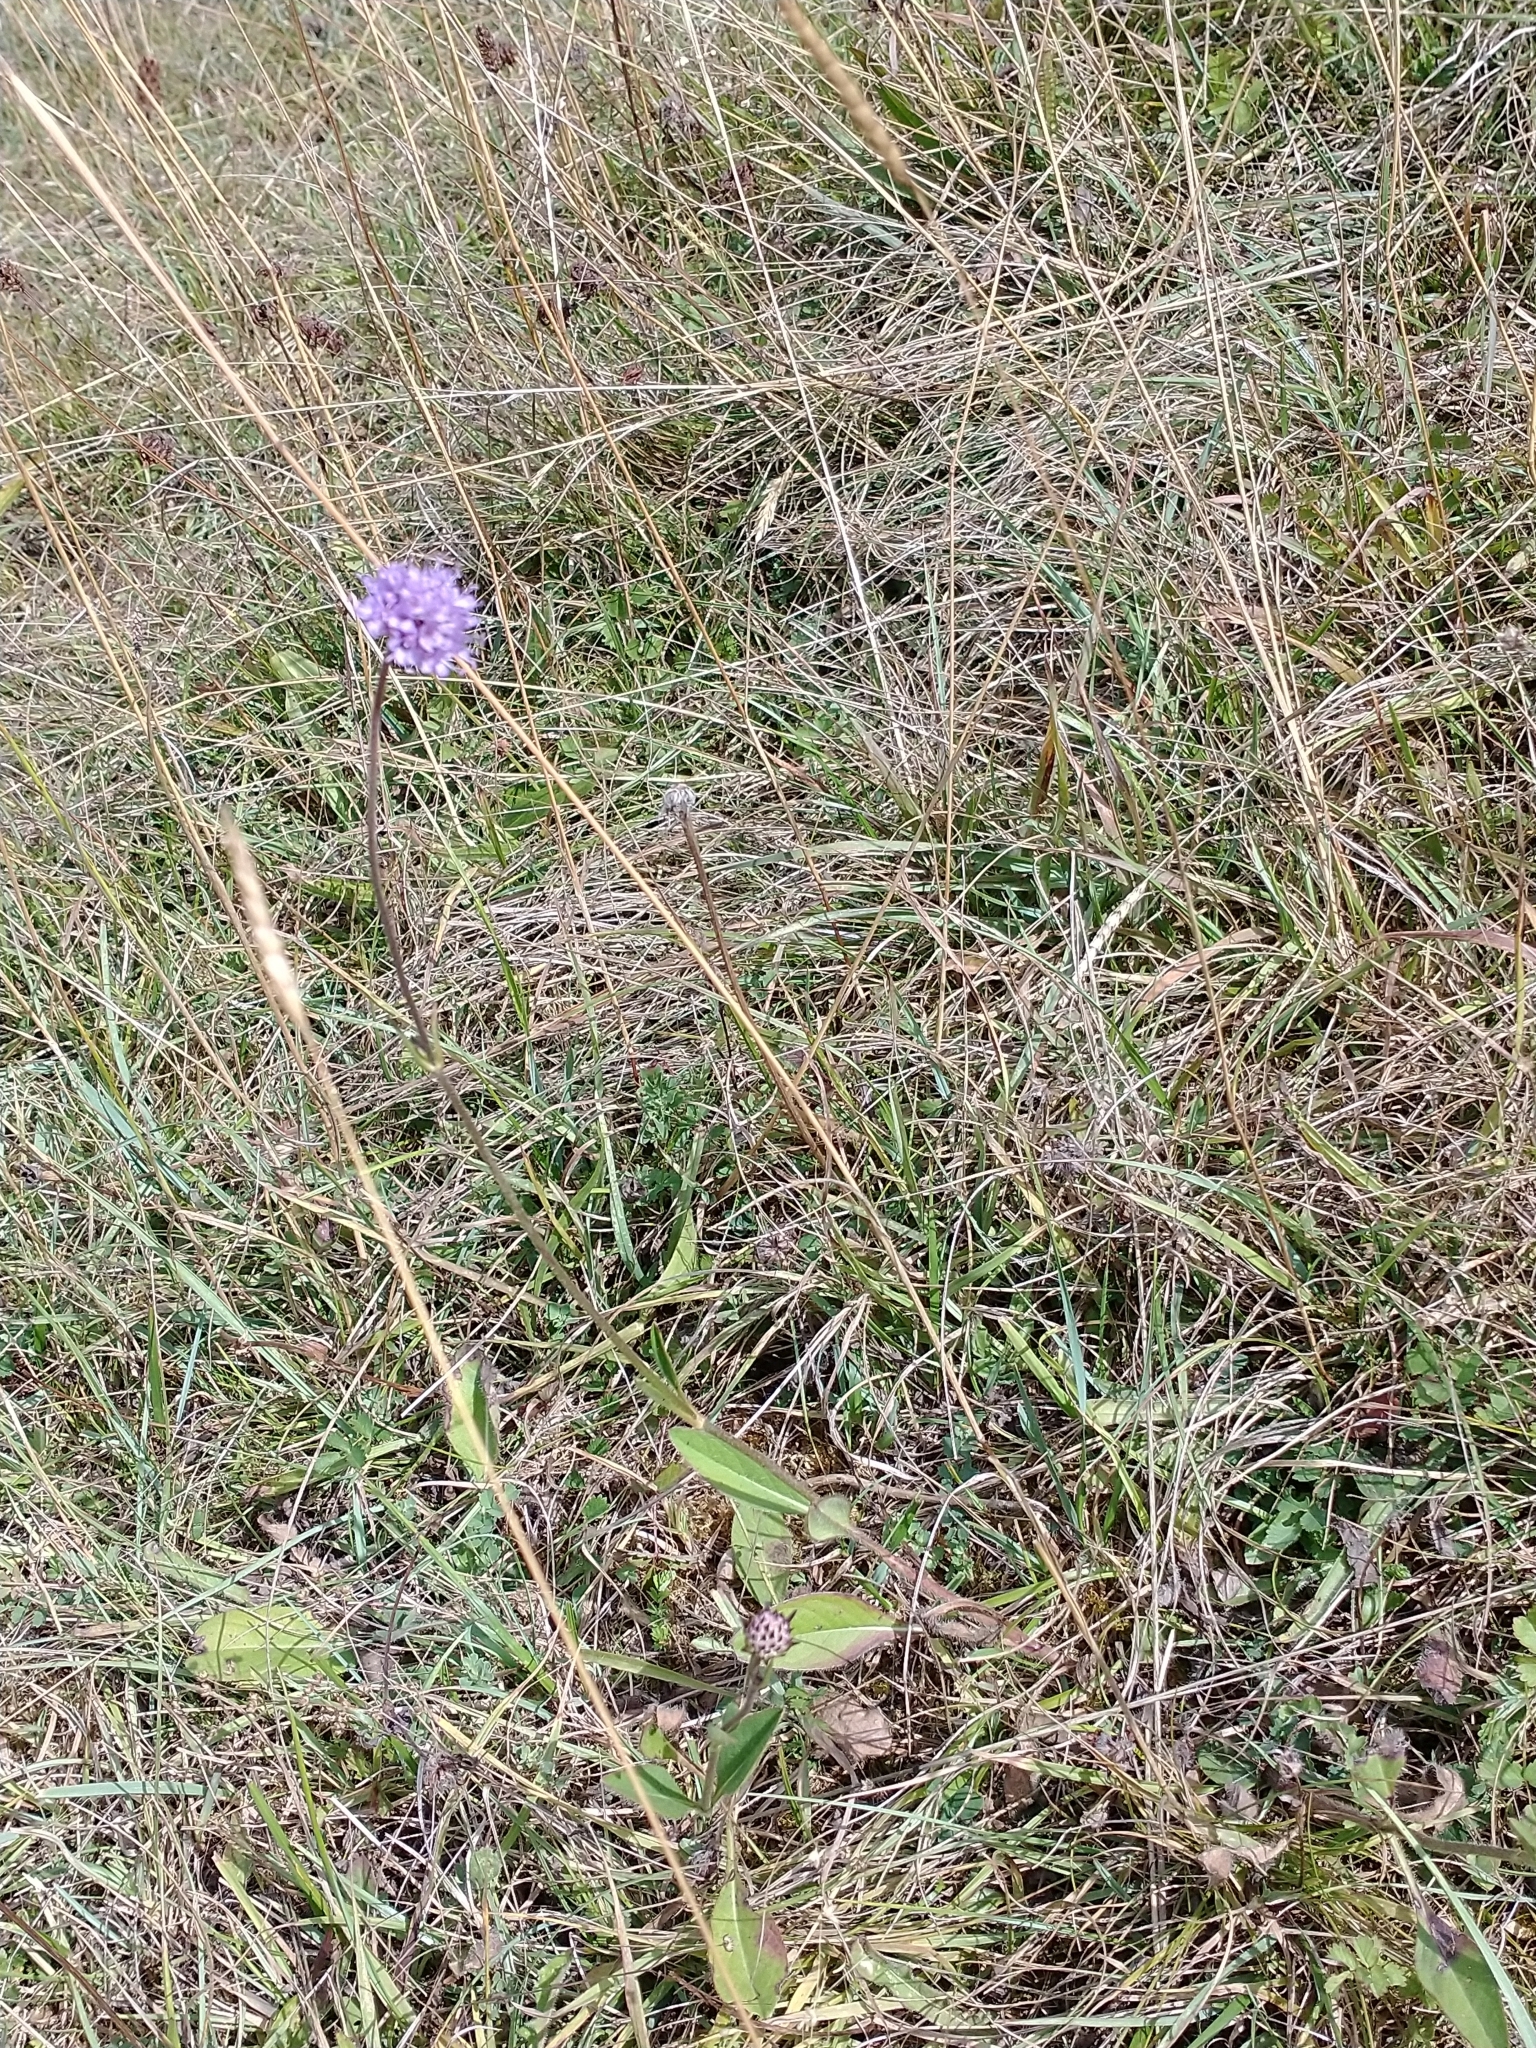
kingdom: Plantae
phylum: Tracheophyta
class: Magnoliopsida
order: Dipsacales
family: Caprifoliaceae
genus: Succisa
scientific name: Succisa pratensis
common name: Devil's-bit
